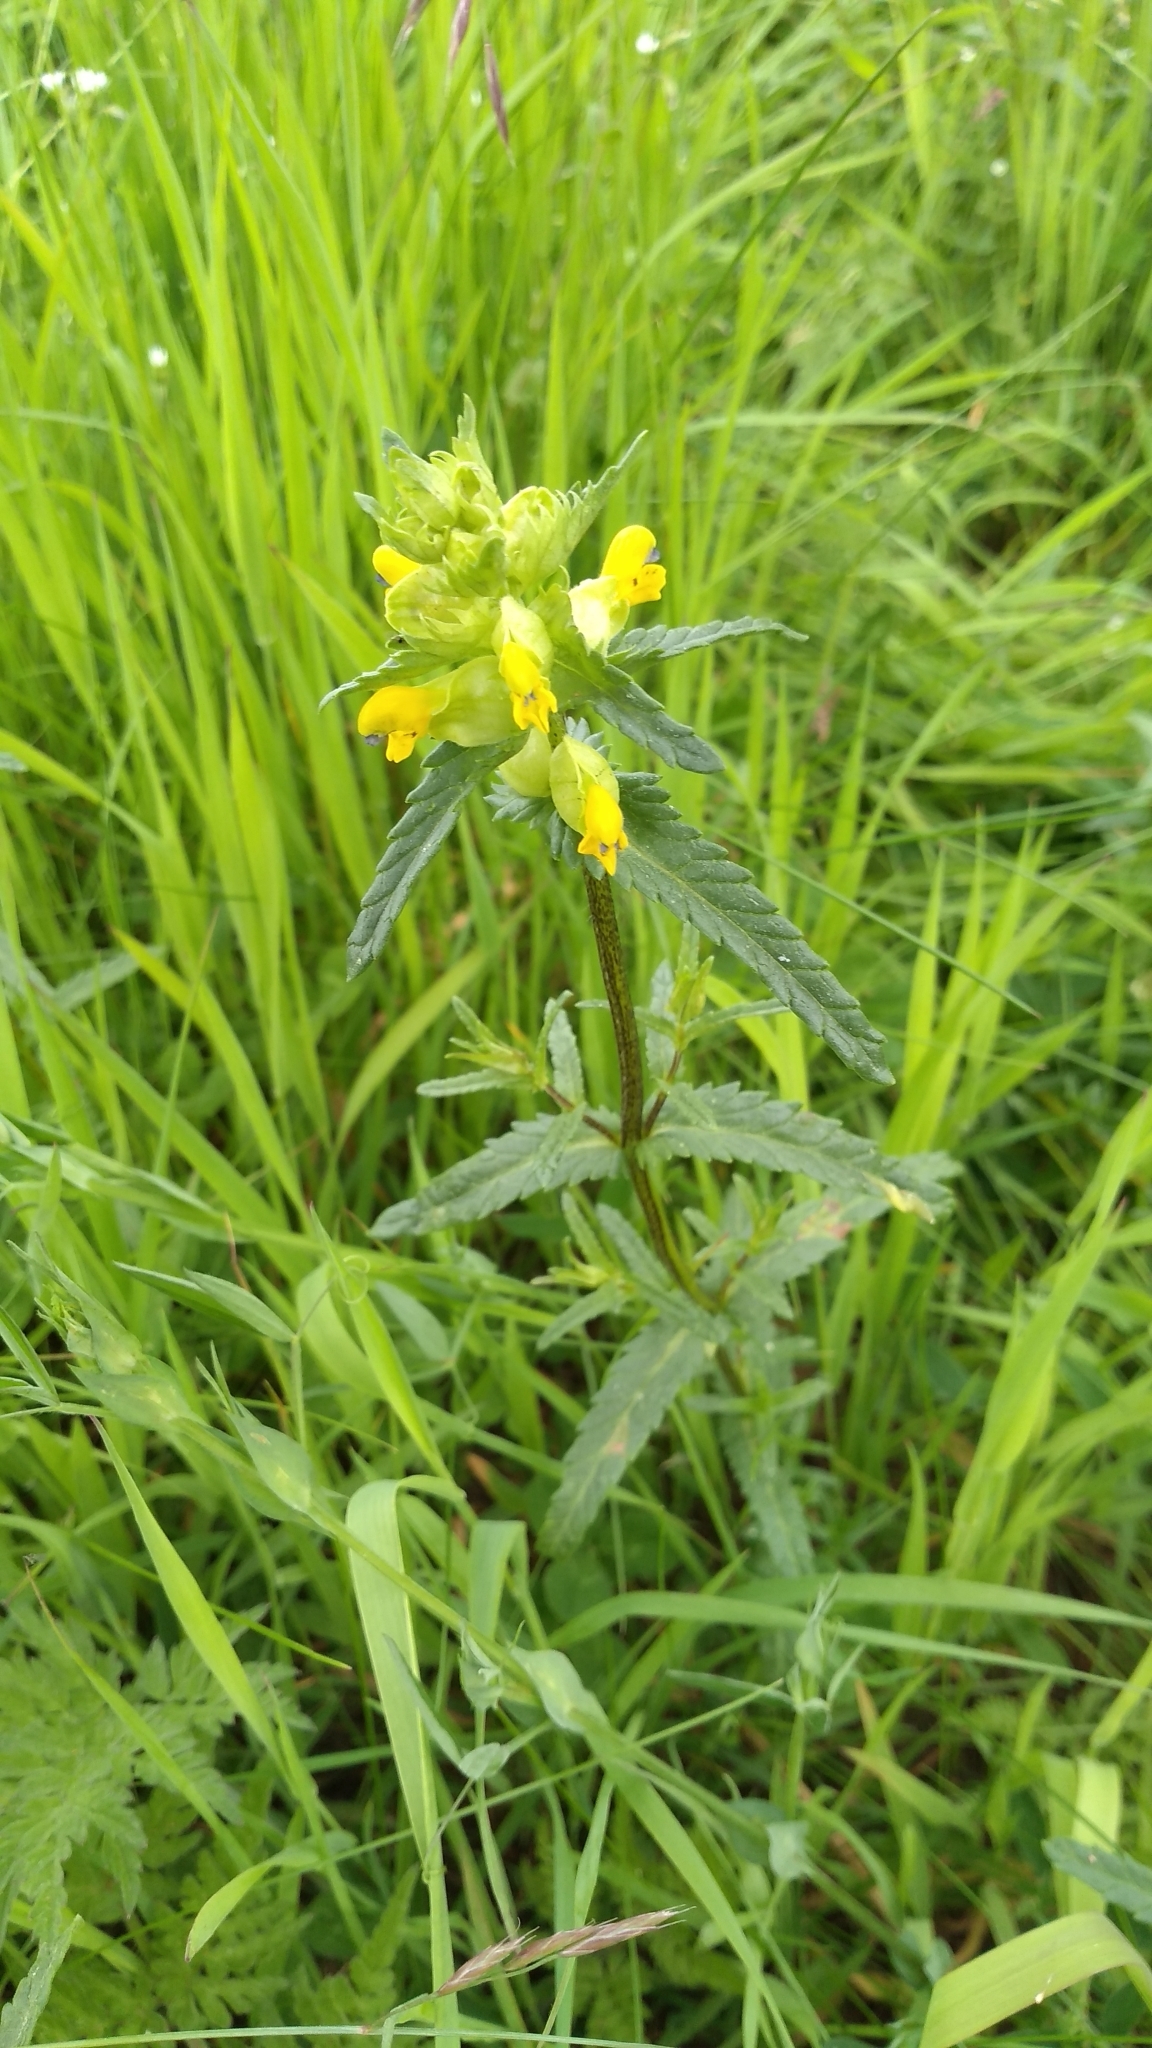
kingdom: Plantae
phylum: Tracheophyta
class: Magnoliopsida
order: Lamiales
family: Orobanchaceae
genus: Rhinanthus
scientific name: Rhinanthus minor
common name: Yellow-rattle
